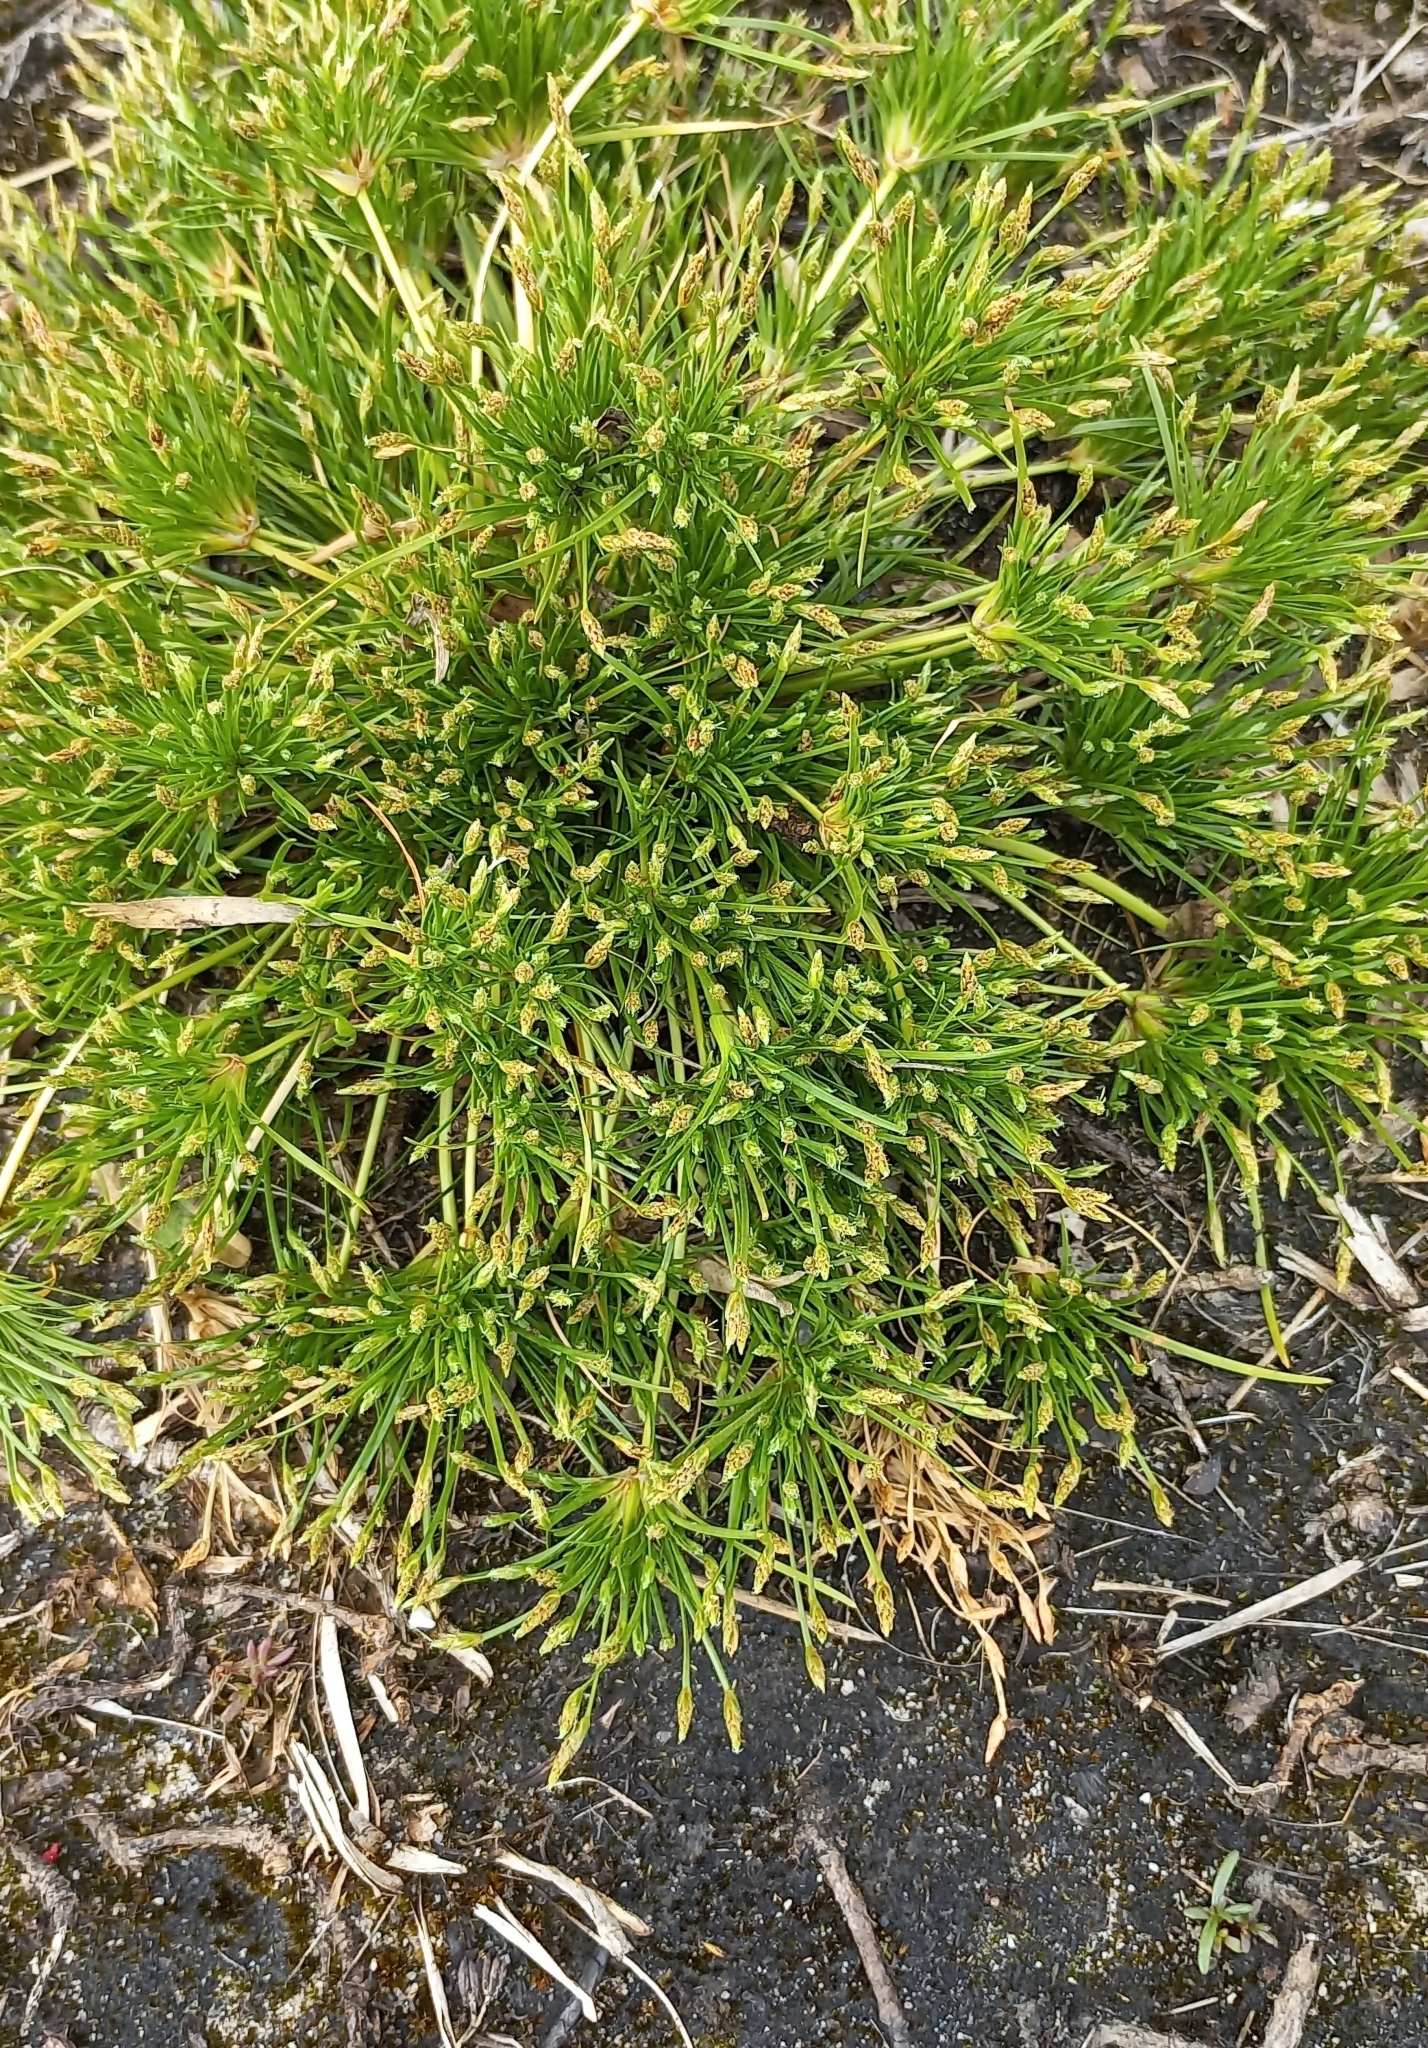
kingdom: Plantae
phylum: Tracheophyta
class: Liliopsida
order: Poales
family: Cyperaceae
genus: Isolepis
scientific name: Isolepis ludwigii
